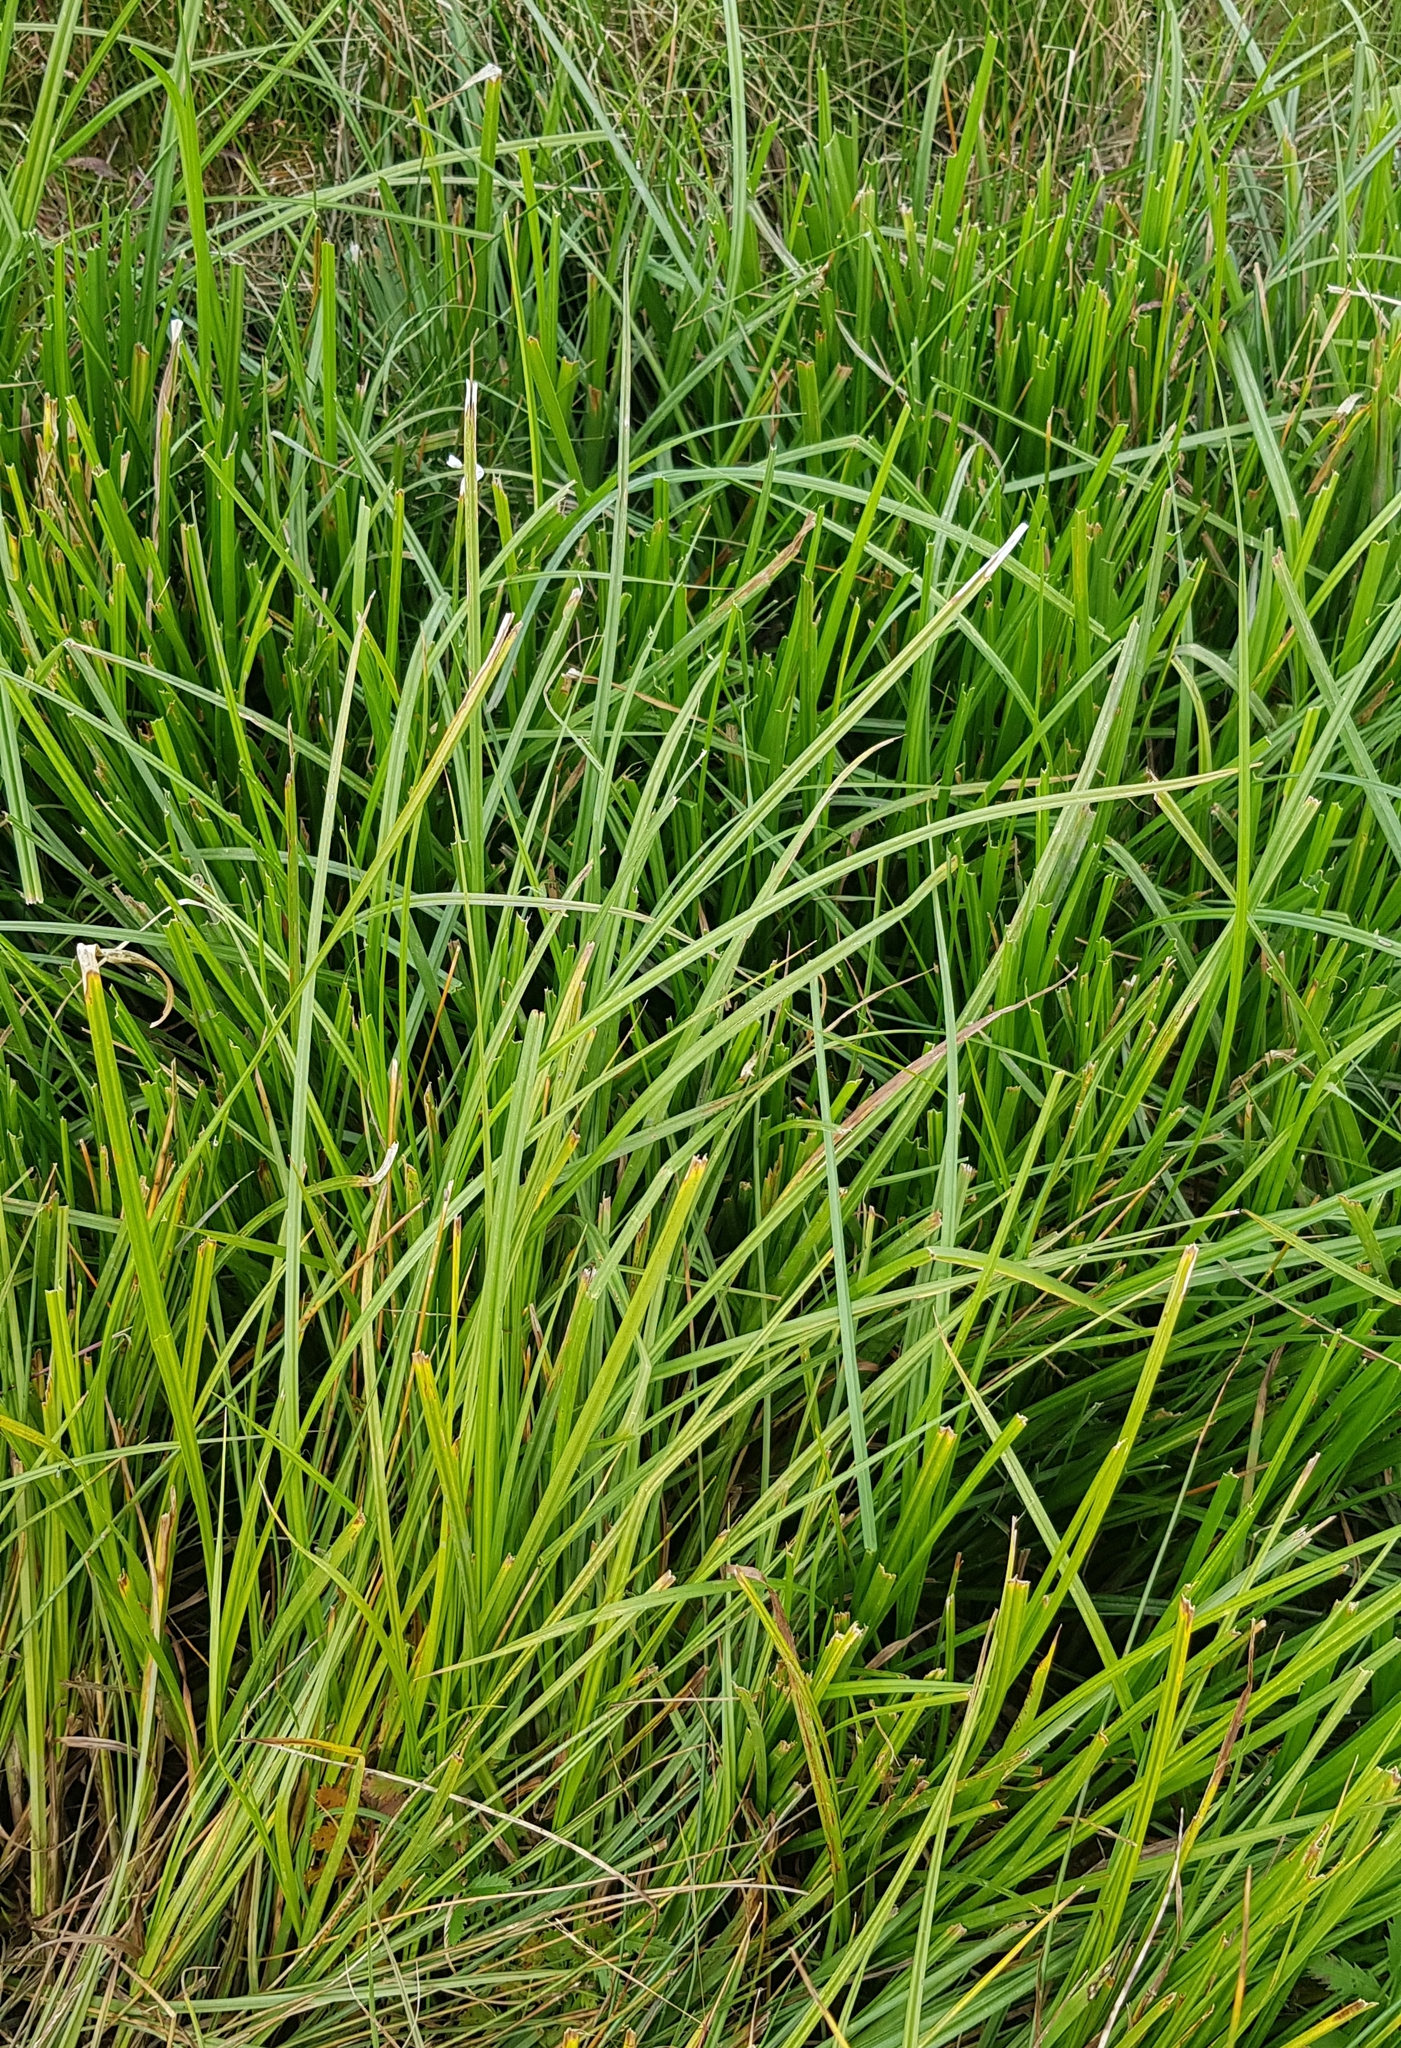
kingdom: Plantae
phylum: Tracheophyta
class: Liliopsida
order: Acorales
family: Acoraceae
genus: Acorus
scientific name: Acorus calamus
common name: Sweet-flag
